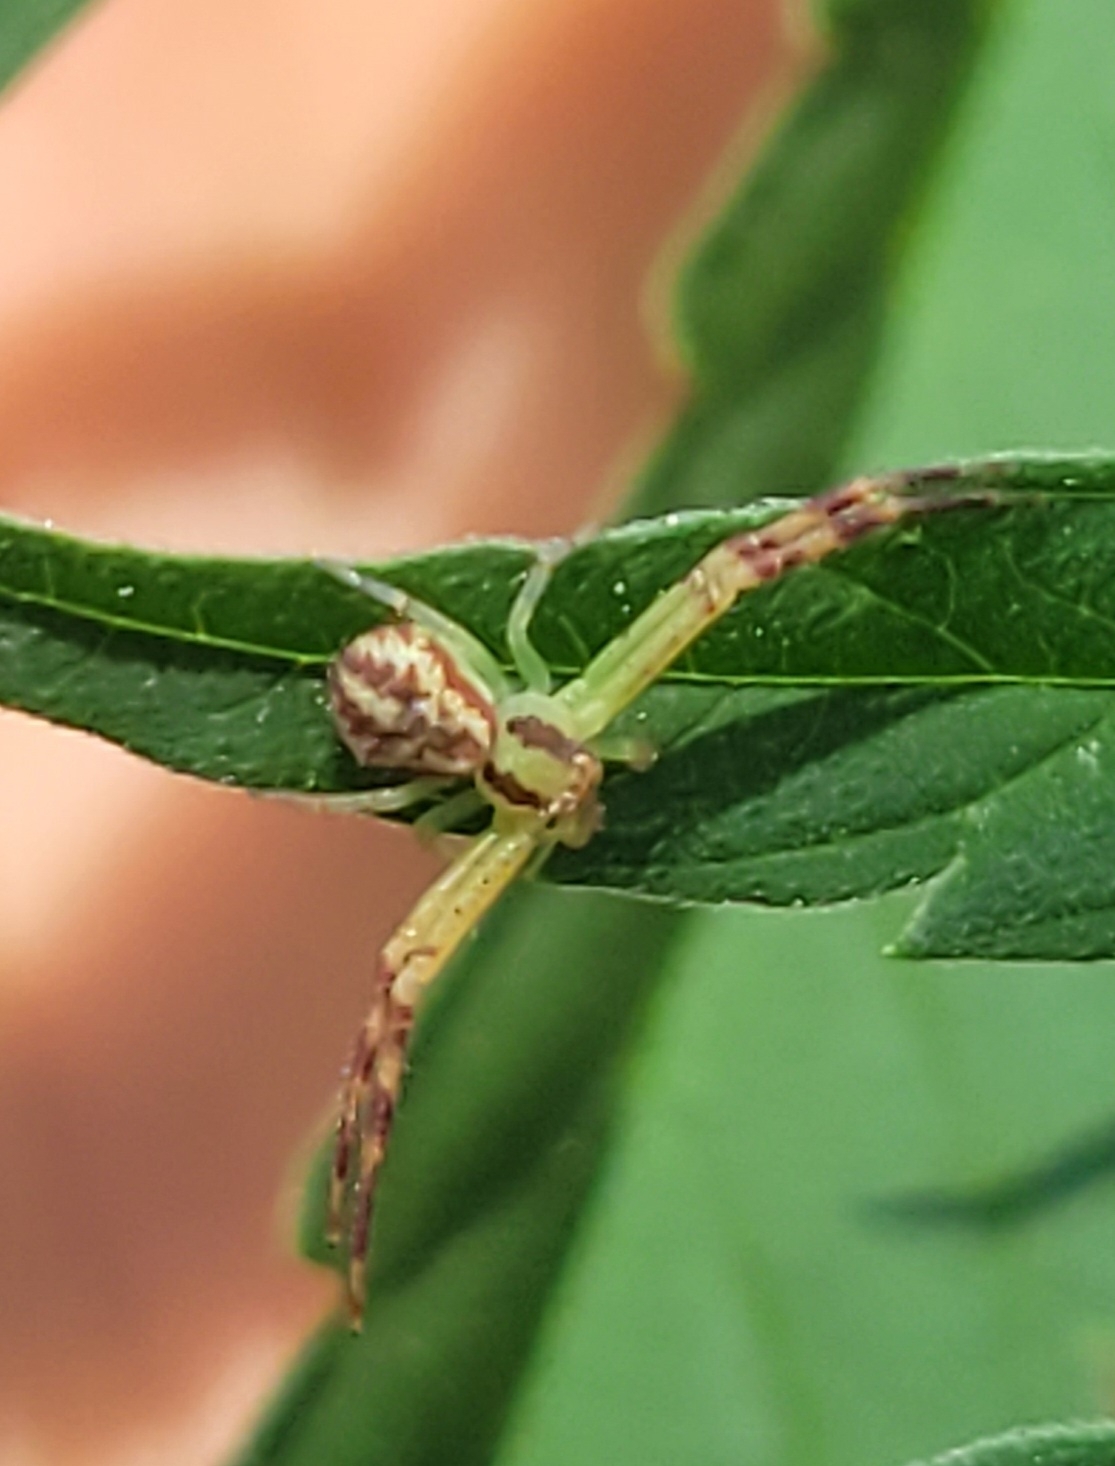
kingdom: Animalia
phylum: Arthropoda
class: Arachnida
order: Araneae
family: Thomisidae
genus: Mecaphesa
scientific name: Mecaphesa asperata
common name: Crab spiders
